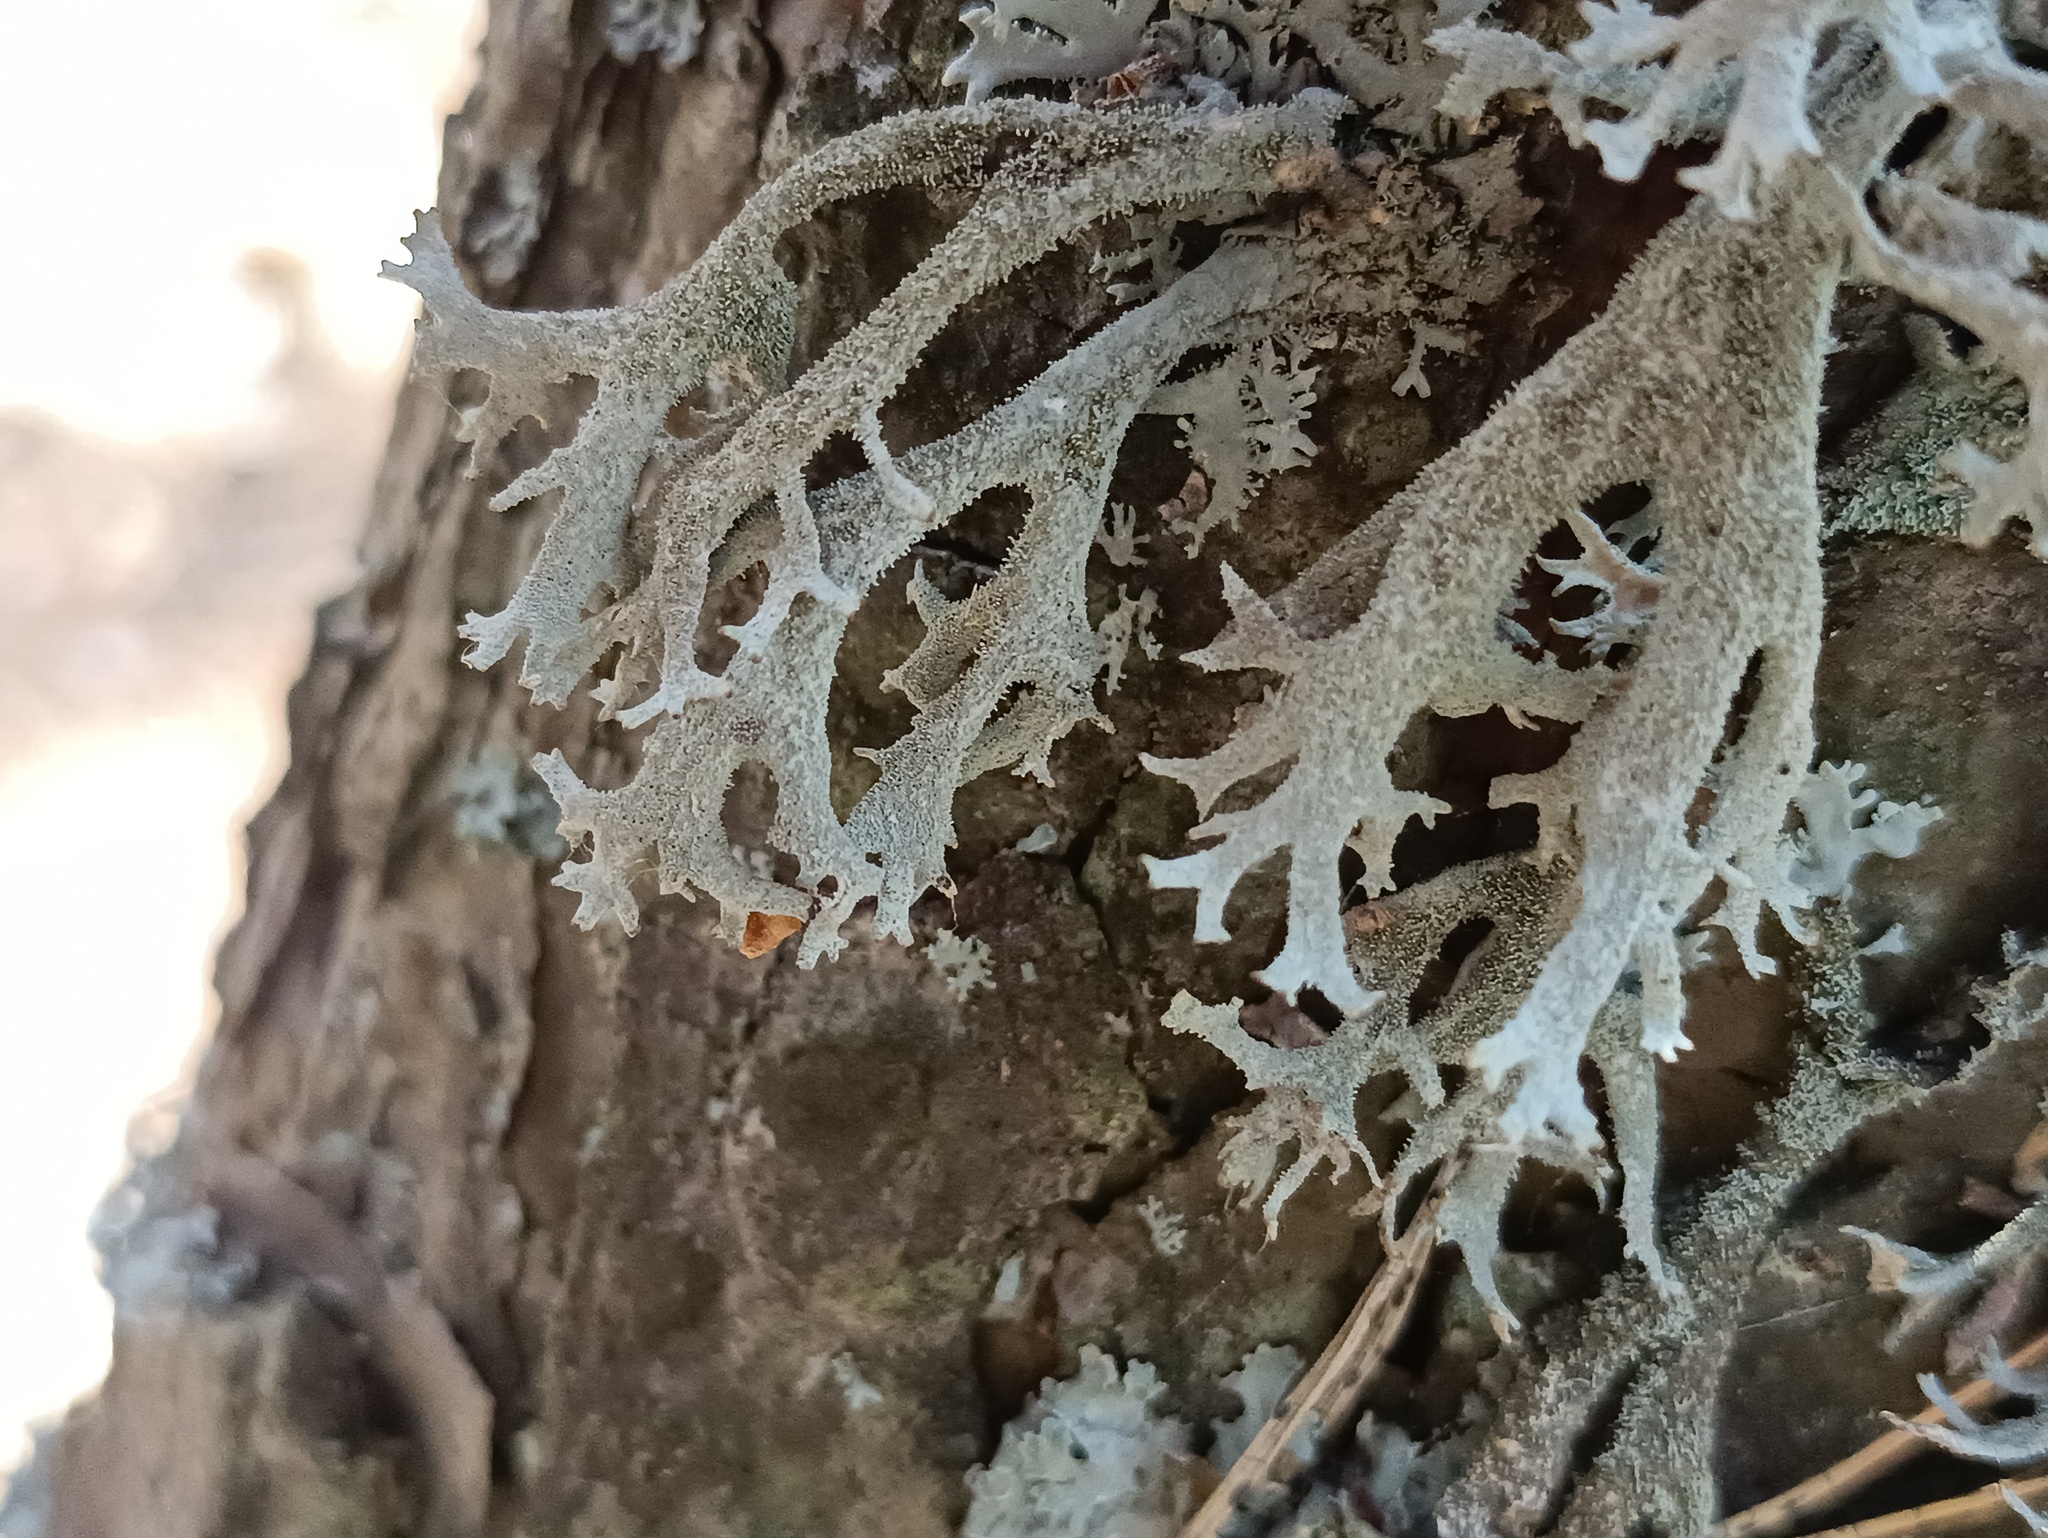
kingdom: Fungi
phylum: Ascomycota
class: Lecanoromycetes
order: Lecanorales
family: Parmeliaceae
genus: Pseudevernia
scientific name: Pseudevernia furfuracea
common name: Tree moss
